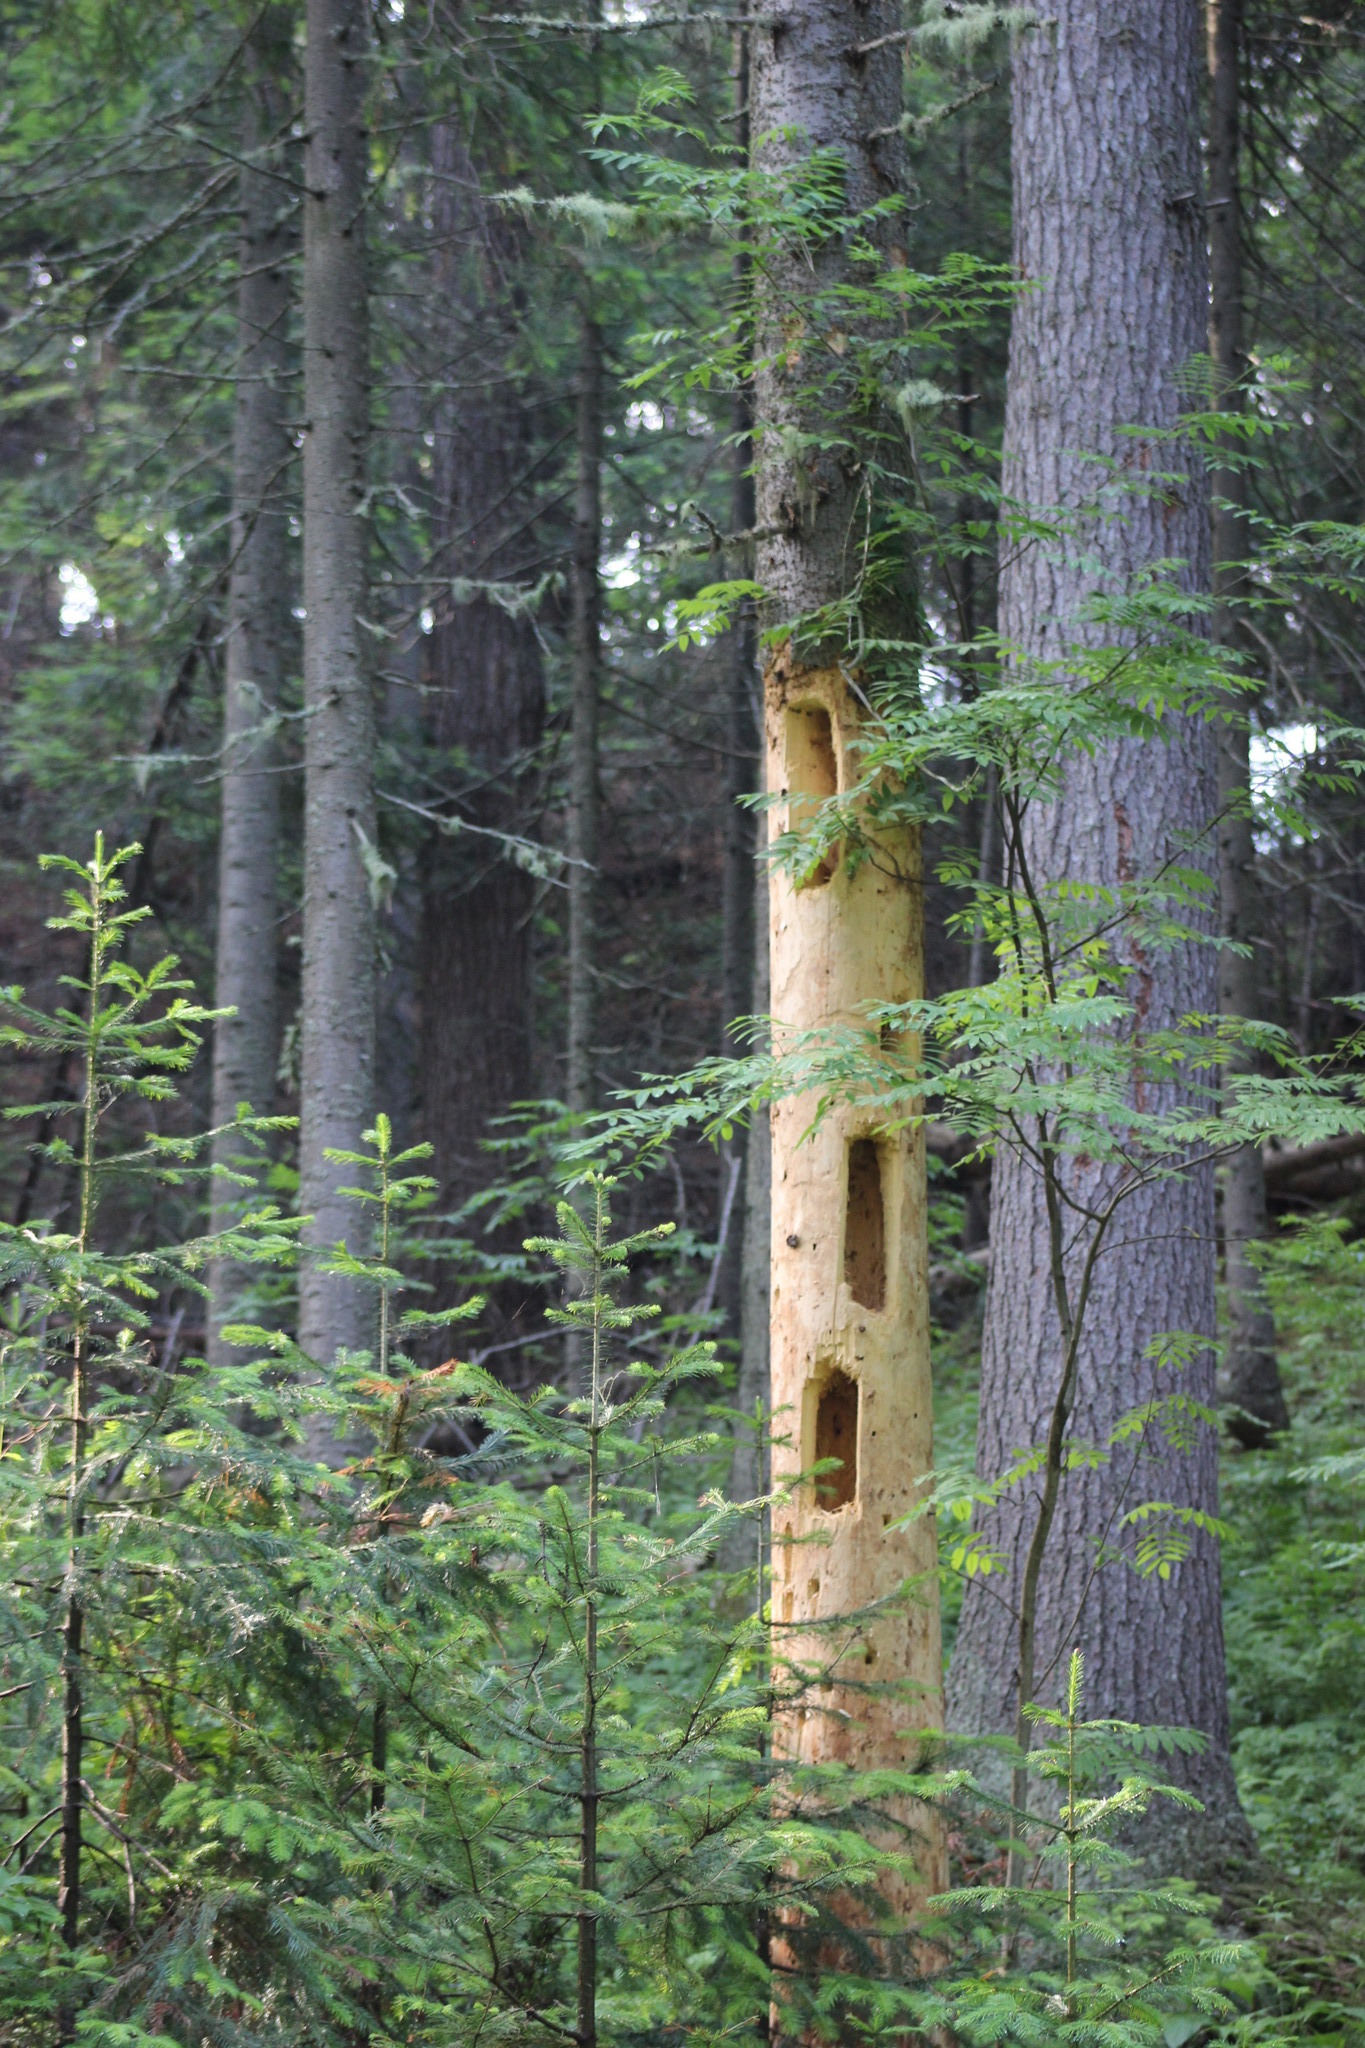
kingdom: Animalia
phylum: Chordata
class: Aves
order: Piciformes
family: Picidae
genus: Dryocopus
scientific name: Dryocopus martius
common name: Black woodpecker
